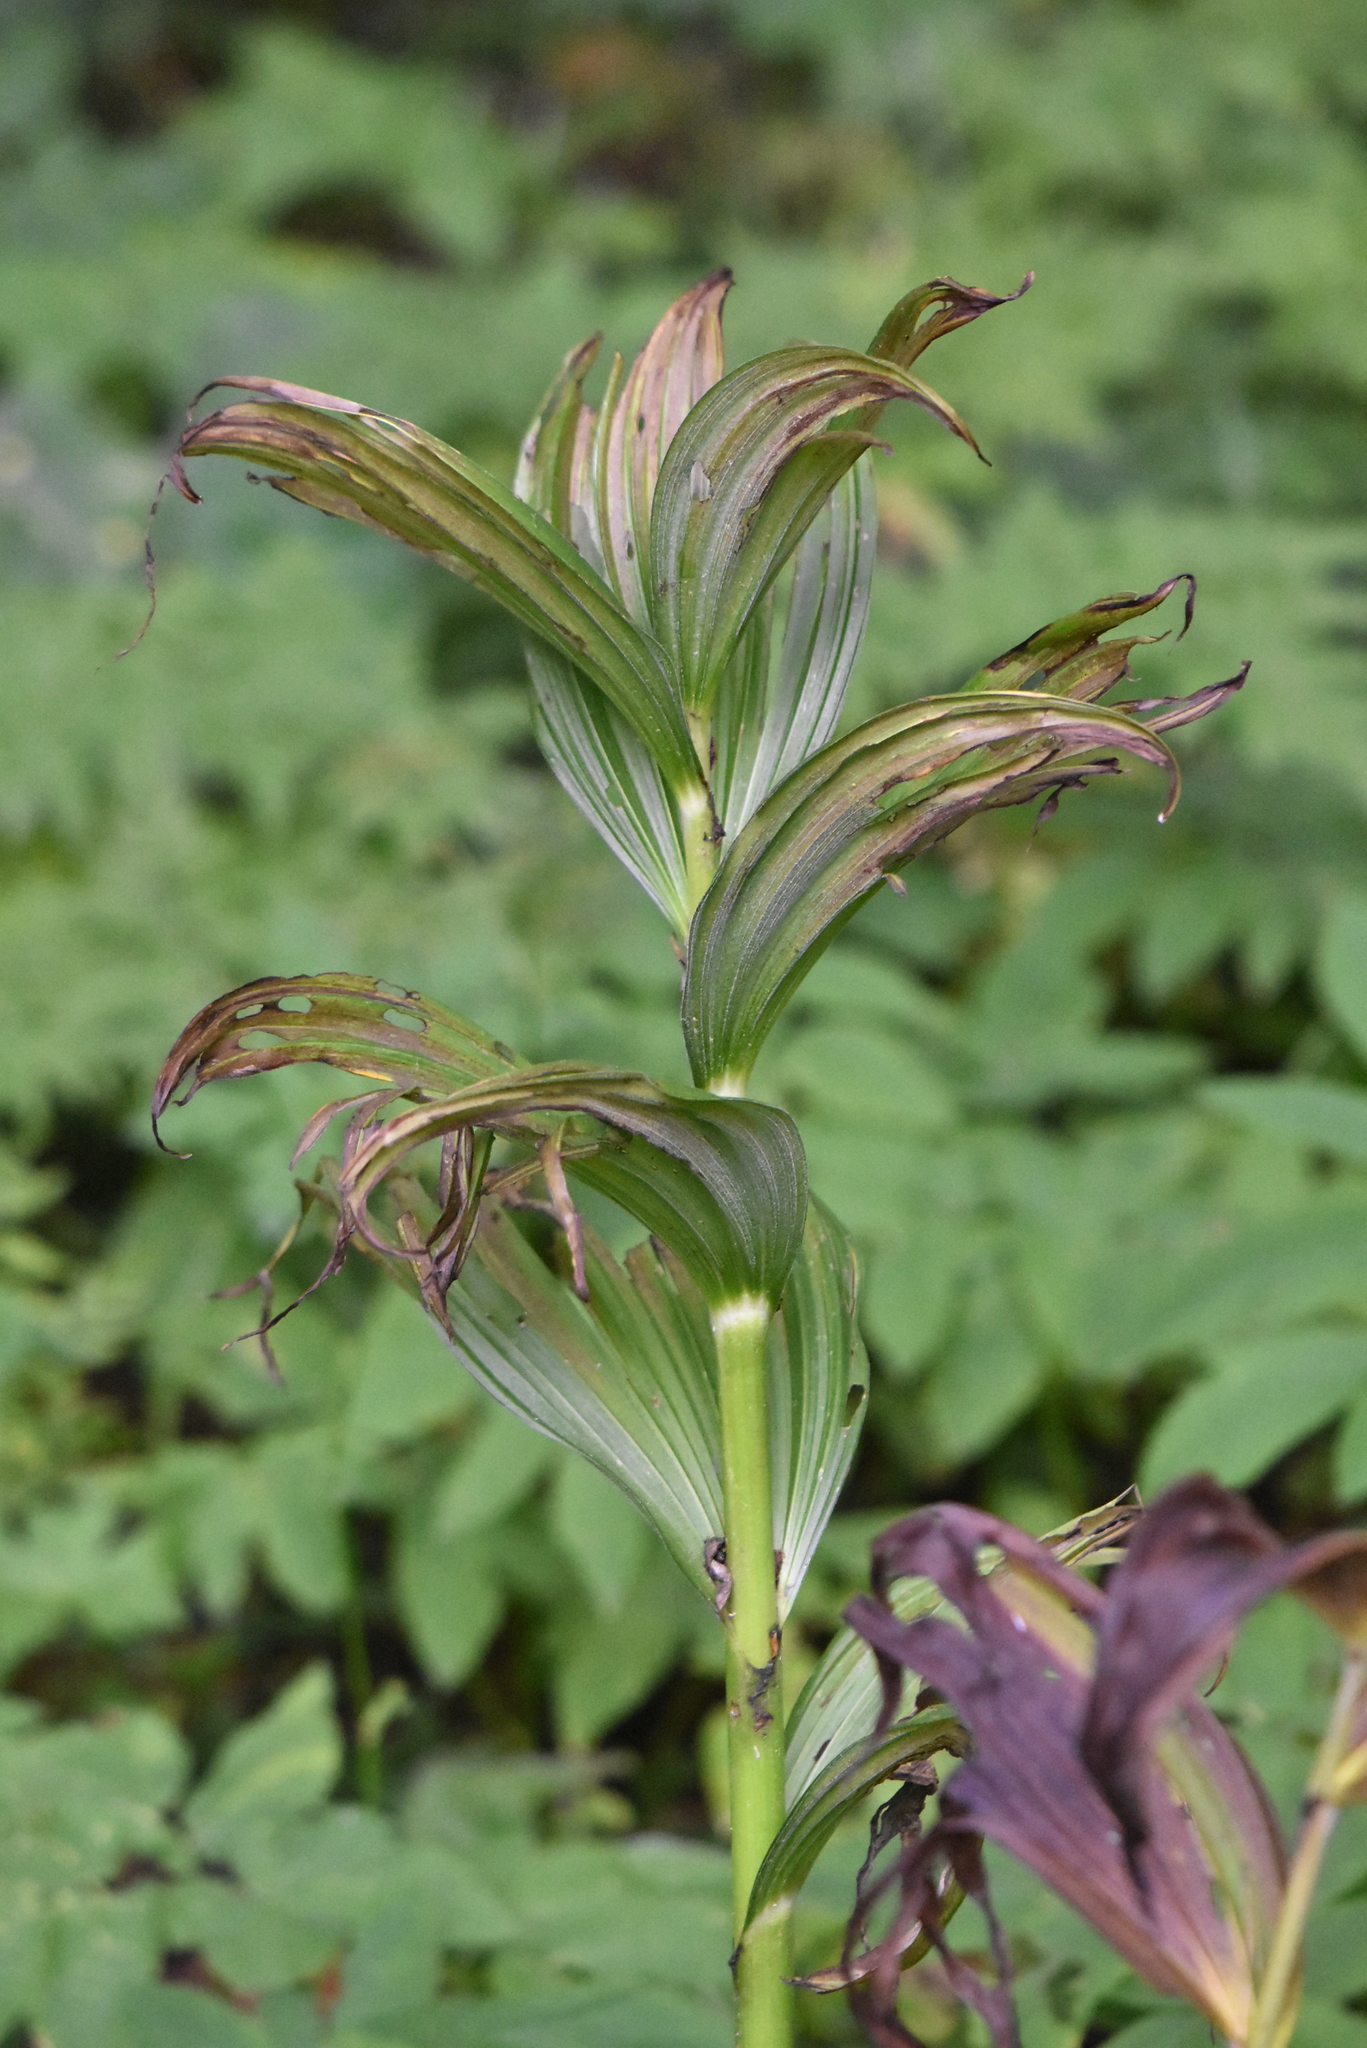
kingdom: Plantae
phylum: Tracheophyta
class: Liliopsida
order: Liliales
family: Melanthiaceae
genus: Veratrum
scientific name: Veratrum lobelianum
